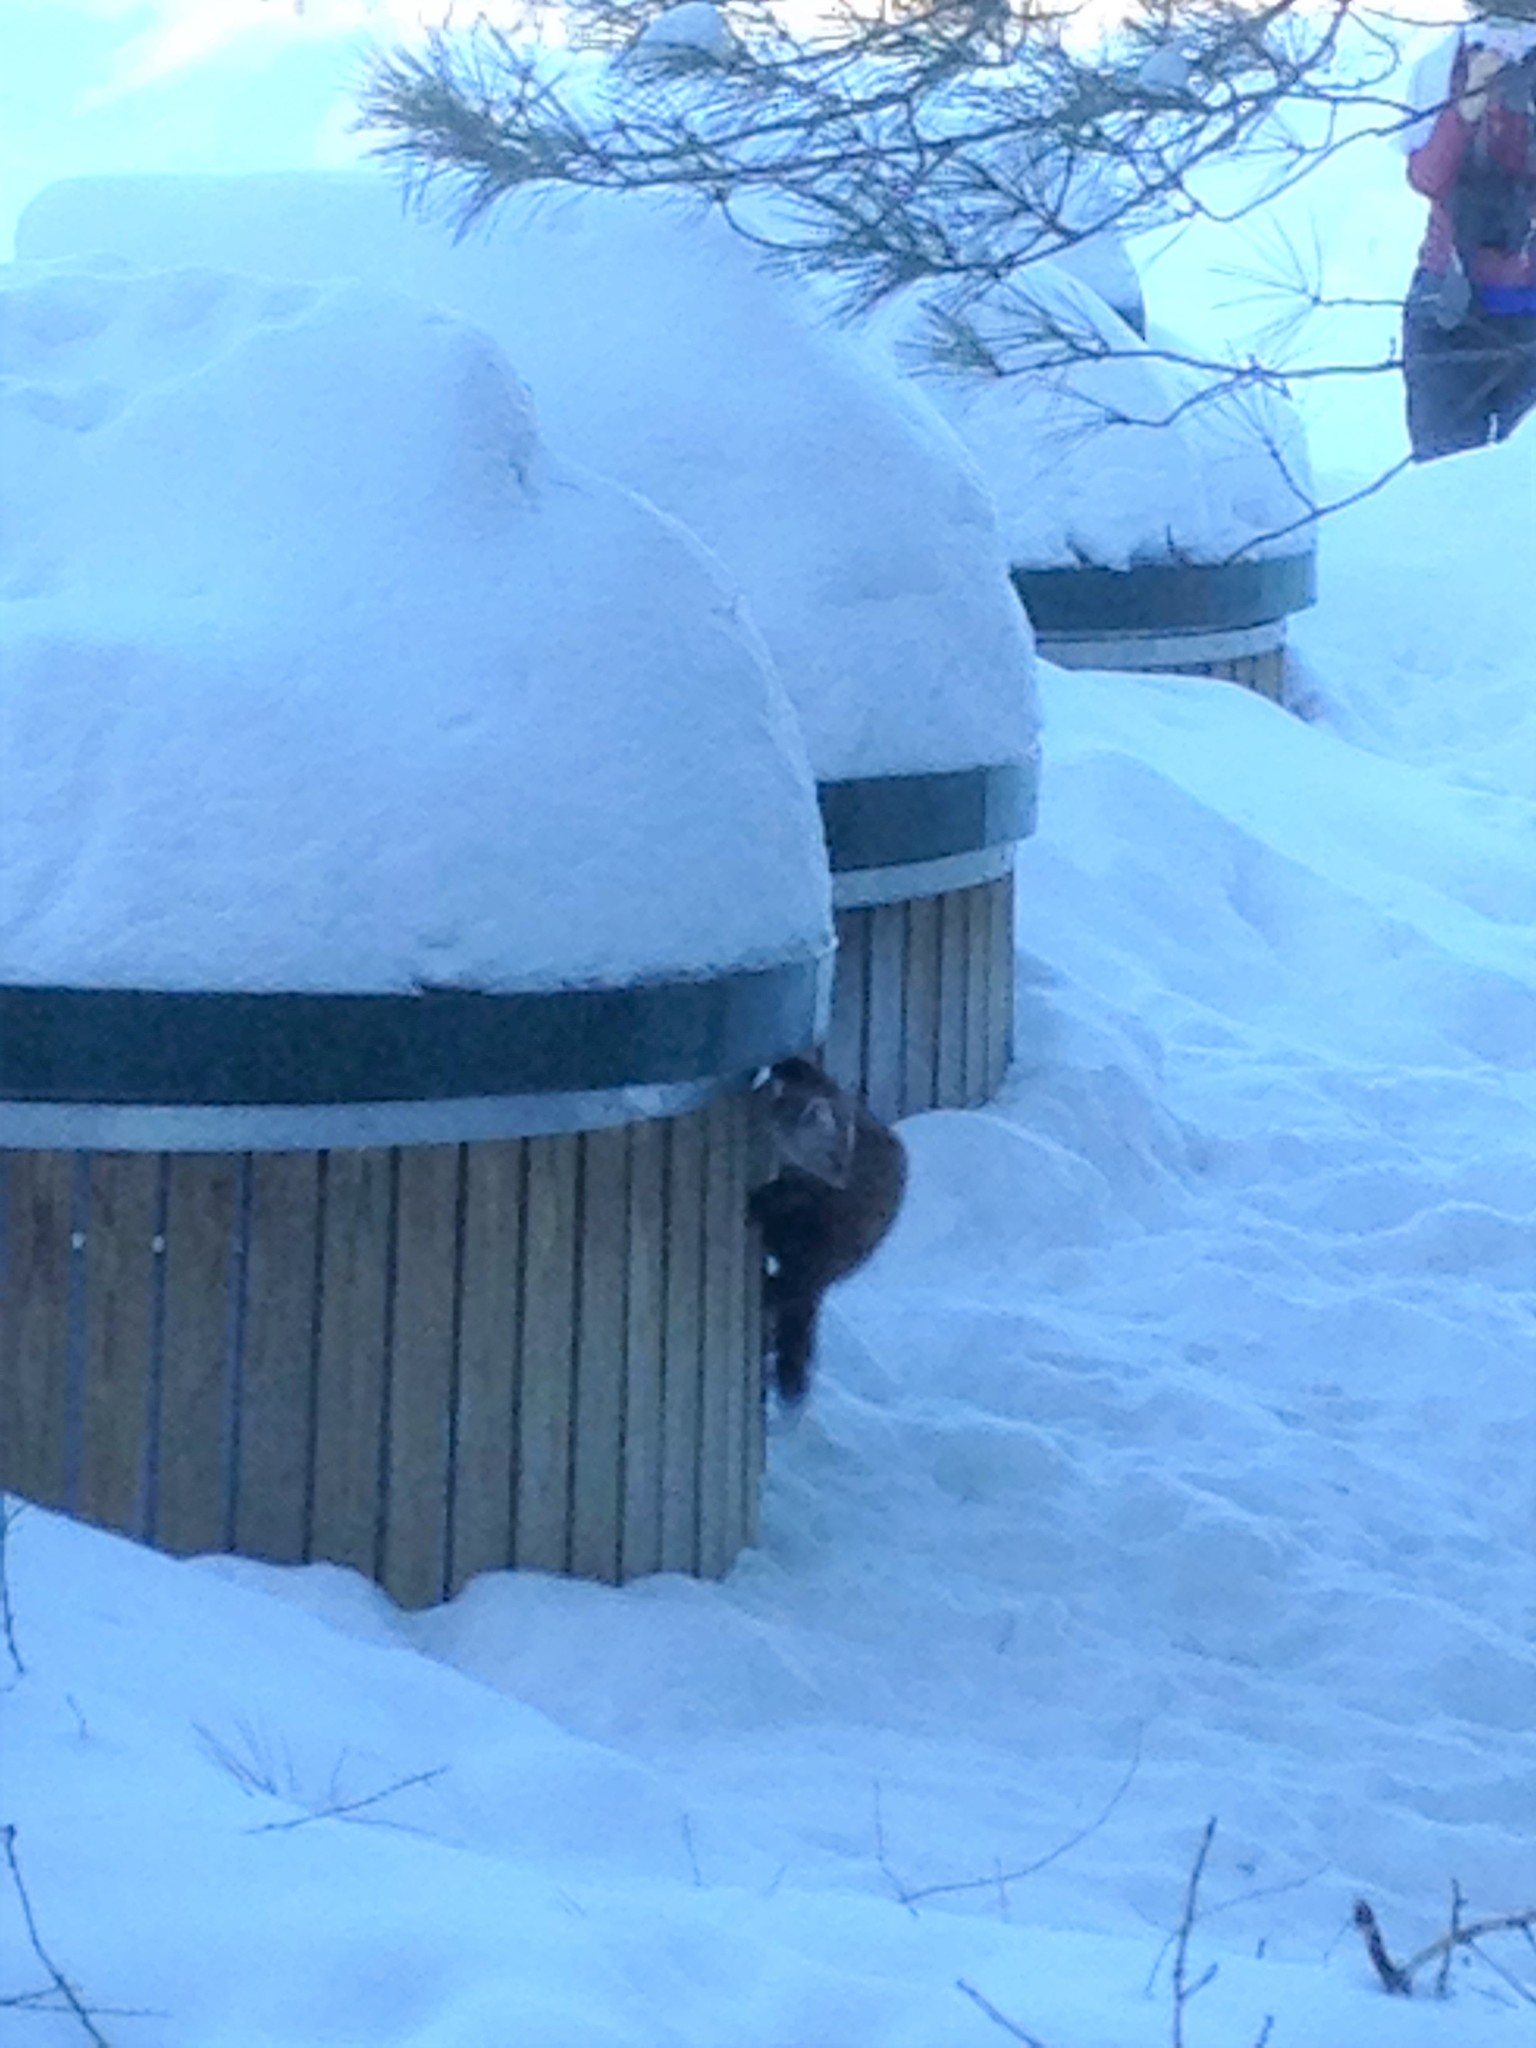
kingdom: Animalia
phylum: Chordata
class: Mammalia
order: Carnivora
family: Mustelidae
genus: Martes
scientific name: Martes americana
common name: American marten
